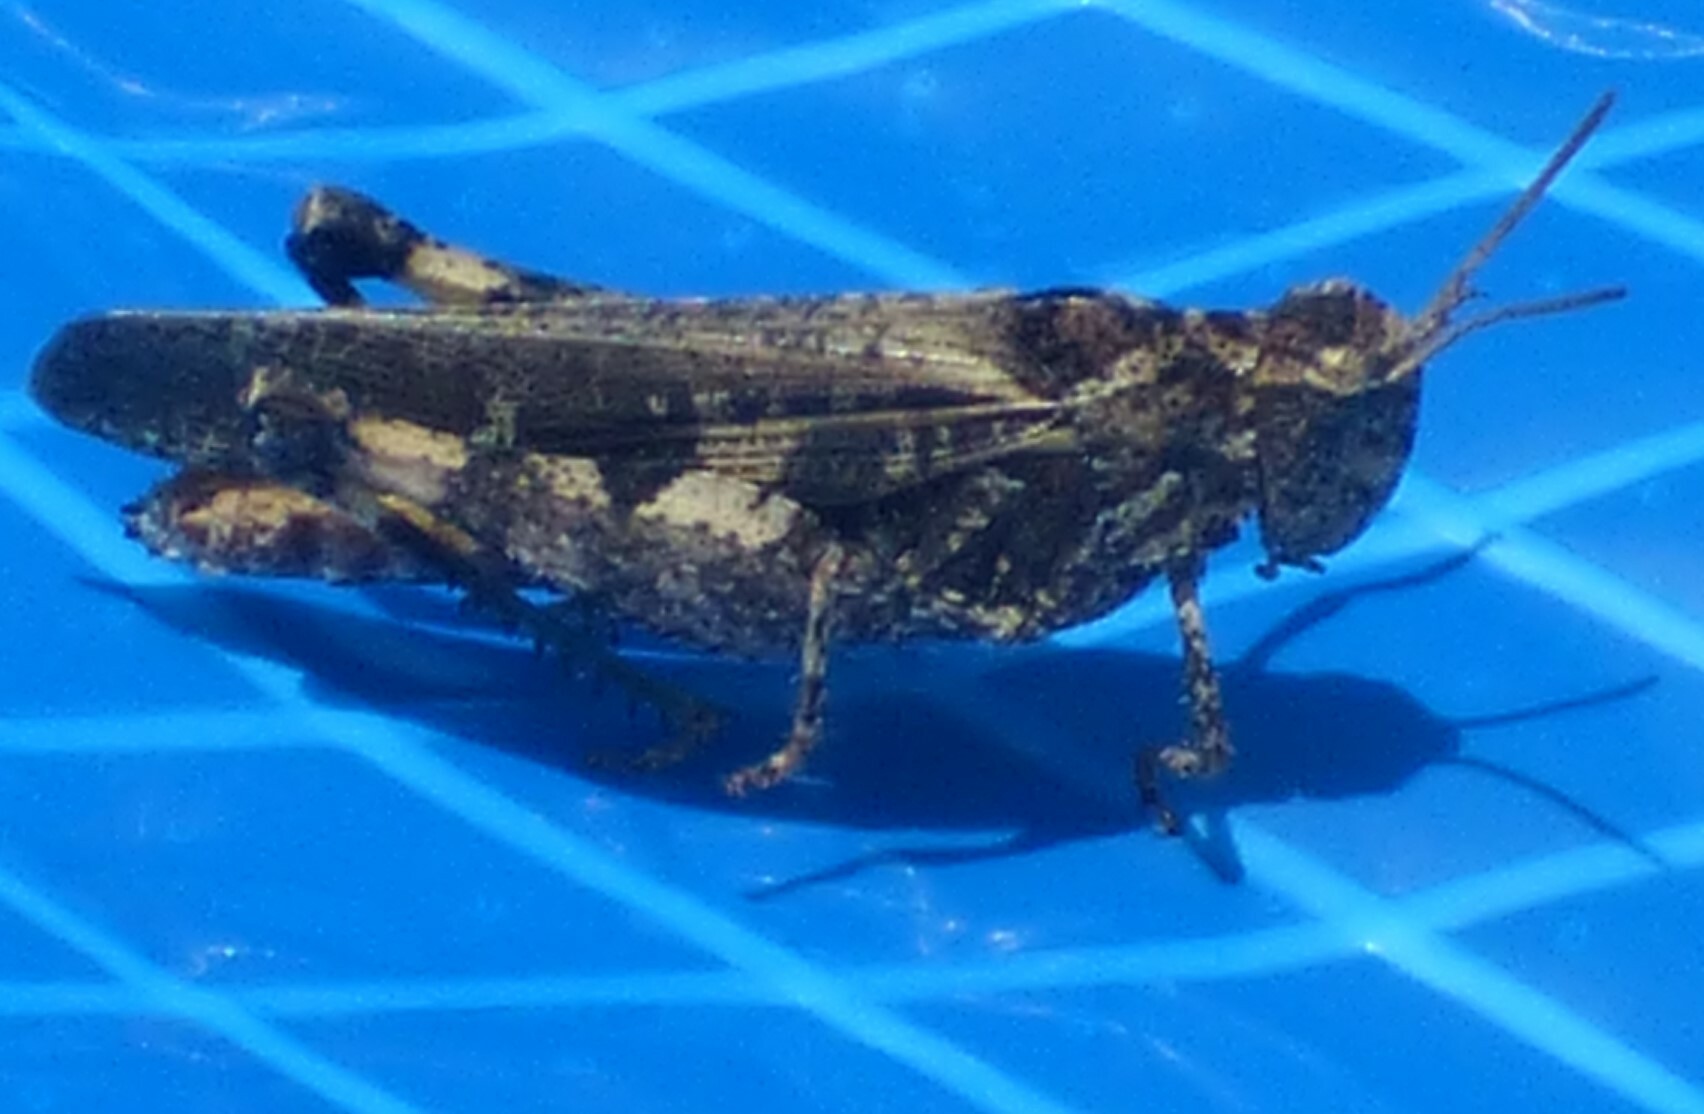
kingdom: Animalia
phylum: Arthropoda
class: Insecta
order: Orthoptera
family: Acrididae
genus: Chortophaga
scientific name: Chortophaga australior
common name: Southern green-striped grasshopper
